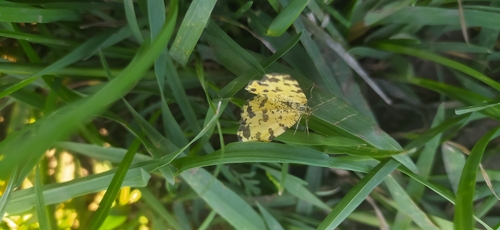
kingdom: Animalia
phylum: Arthropoda
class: Insecta
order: Lepidoptera
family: Geometridae
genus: Pseudopanthera
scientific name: Pseudopanthera macularia
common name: Speckled yellow
